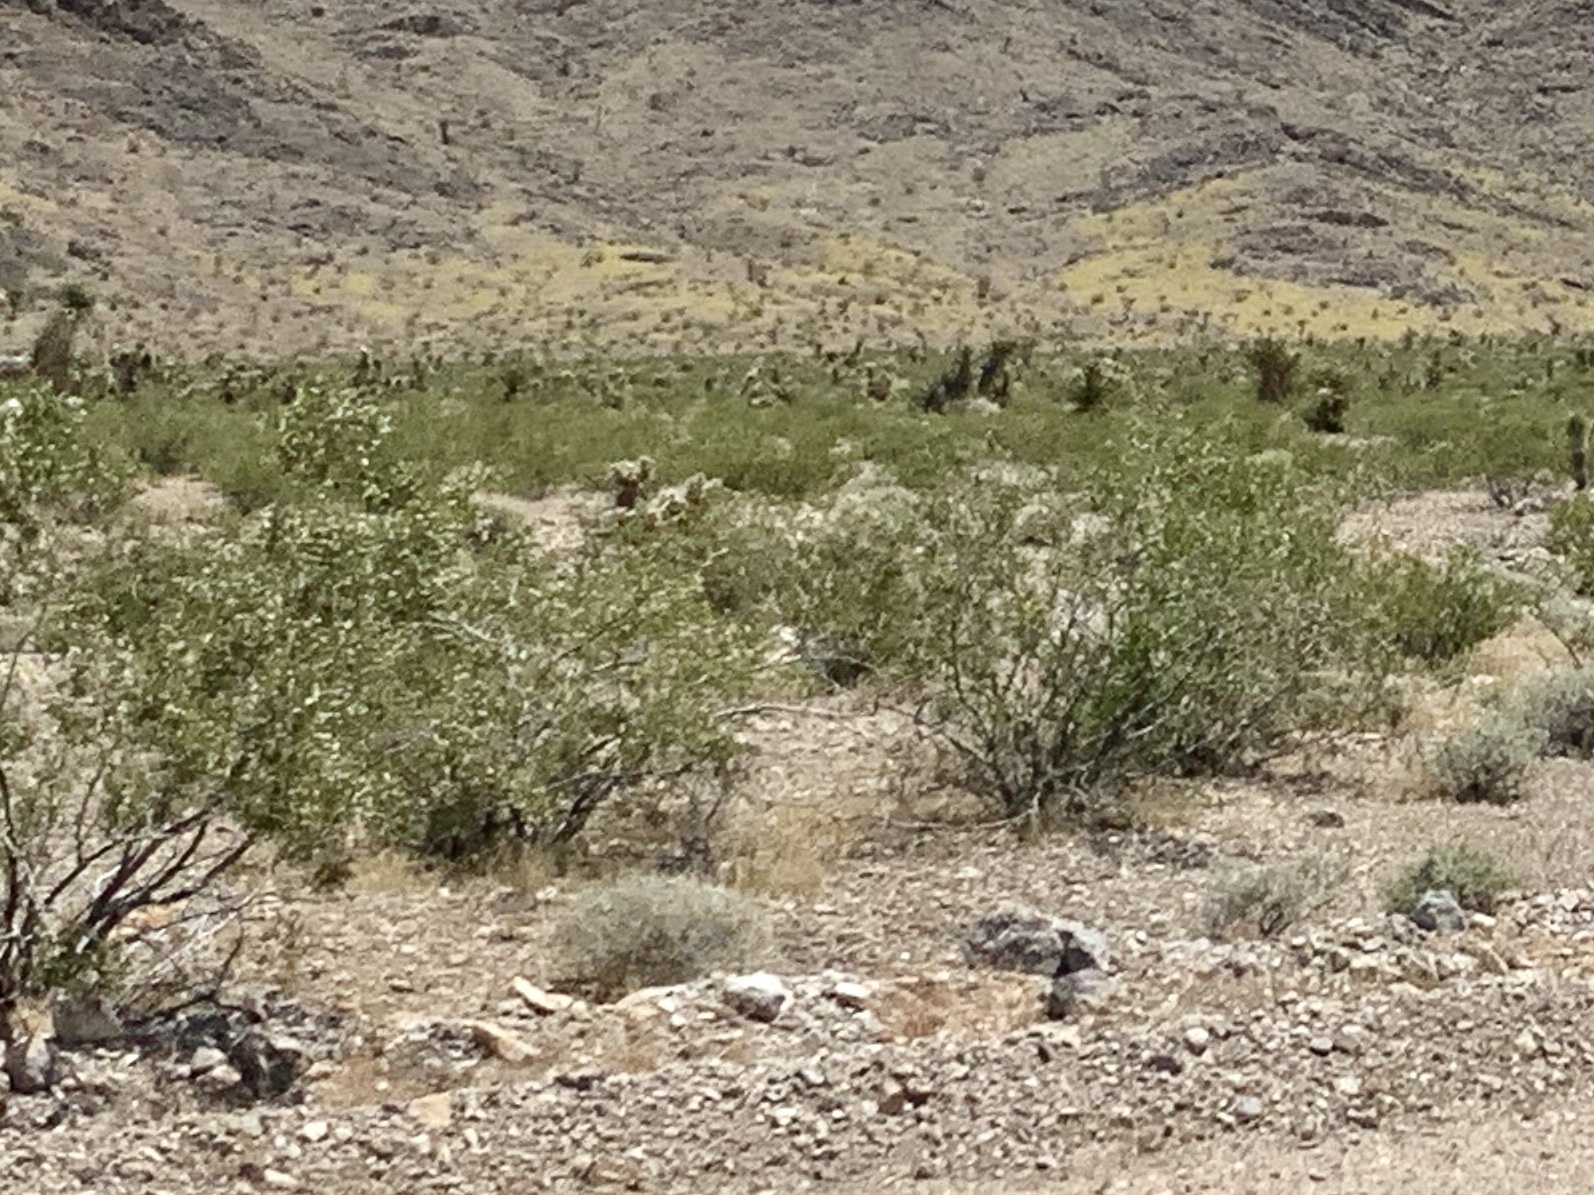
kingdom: Plantae
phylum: Tracheophyta
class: Magnoliopsida
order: Zygophyllales
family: Zygophyllaceae
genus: Larrea
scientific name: Larrea tridentata
